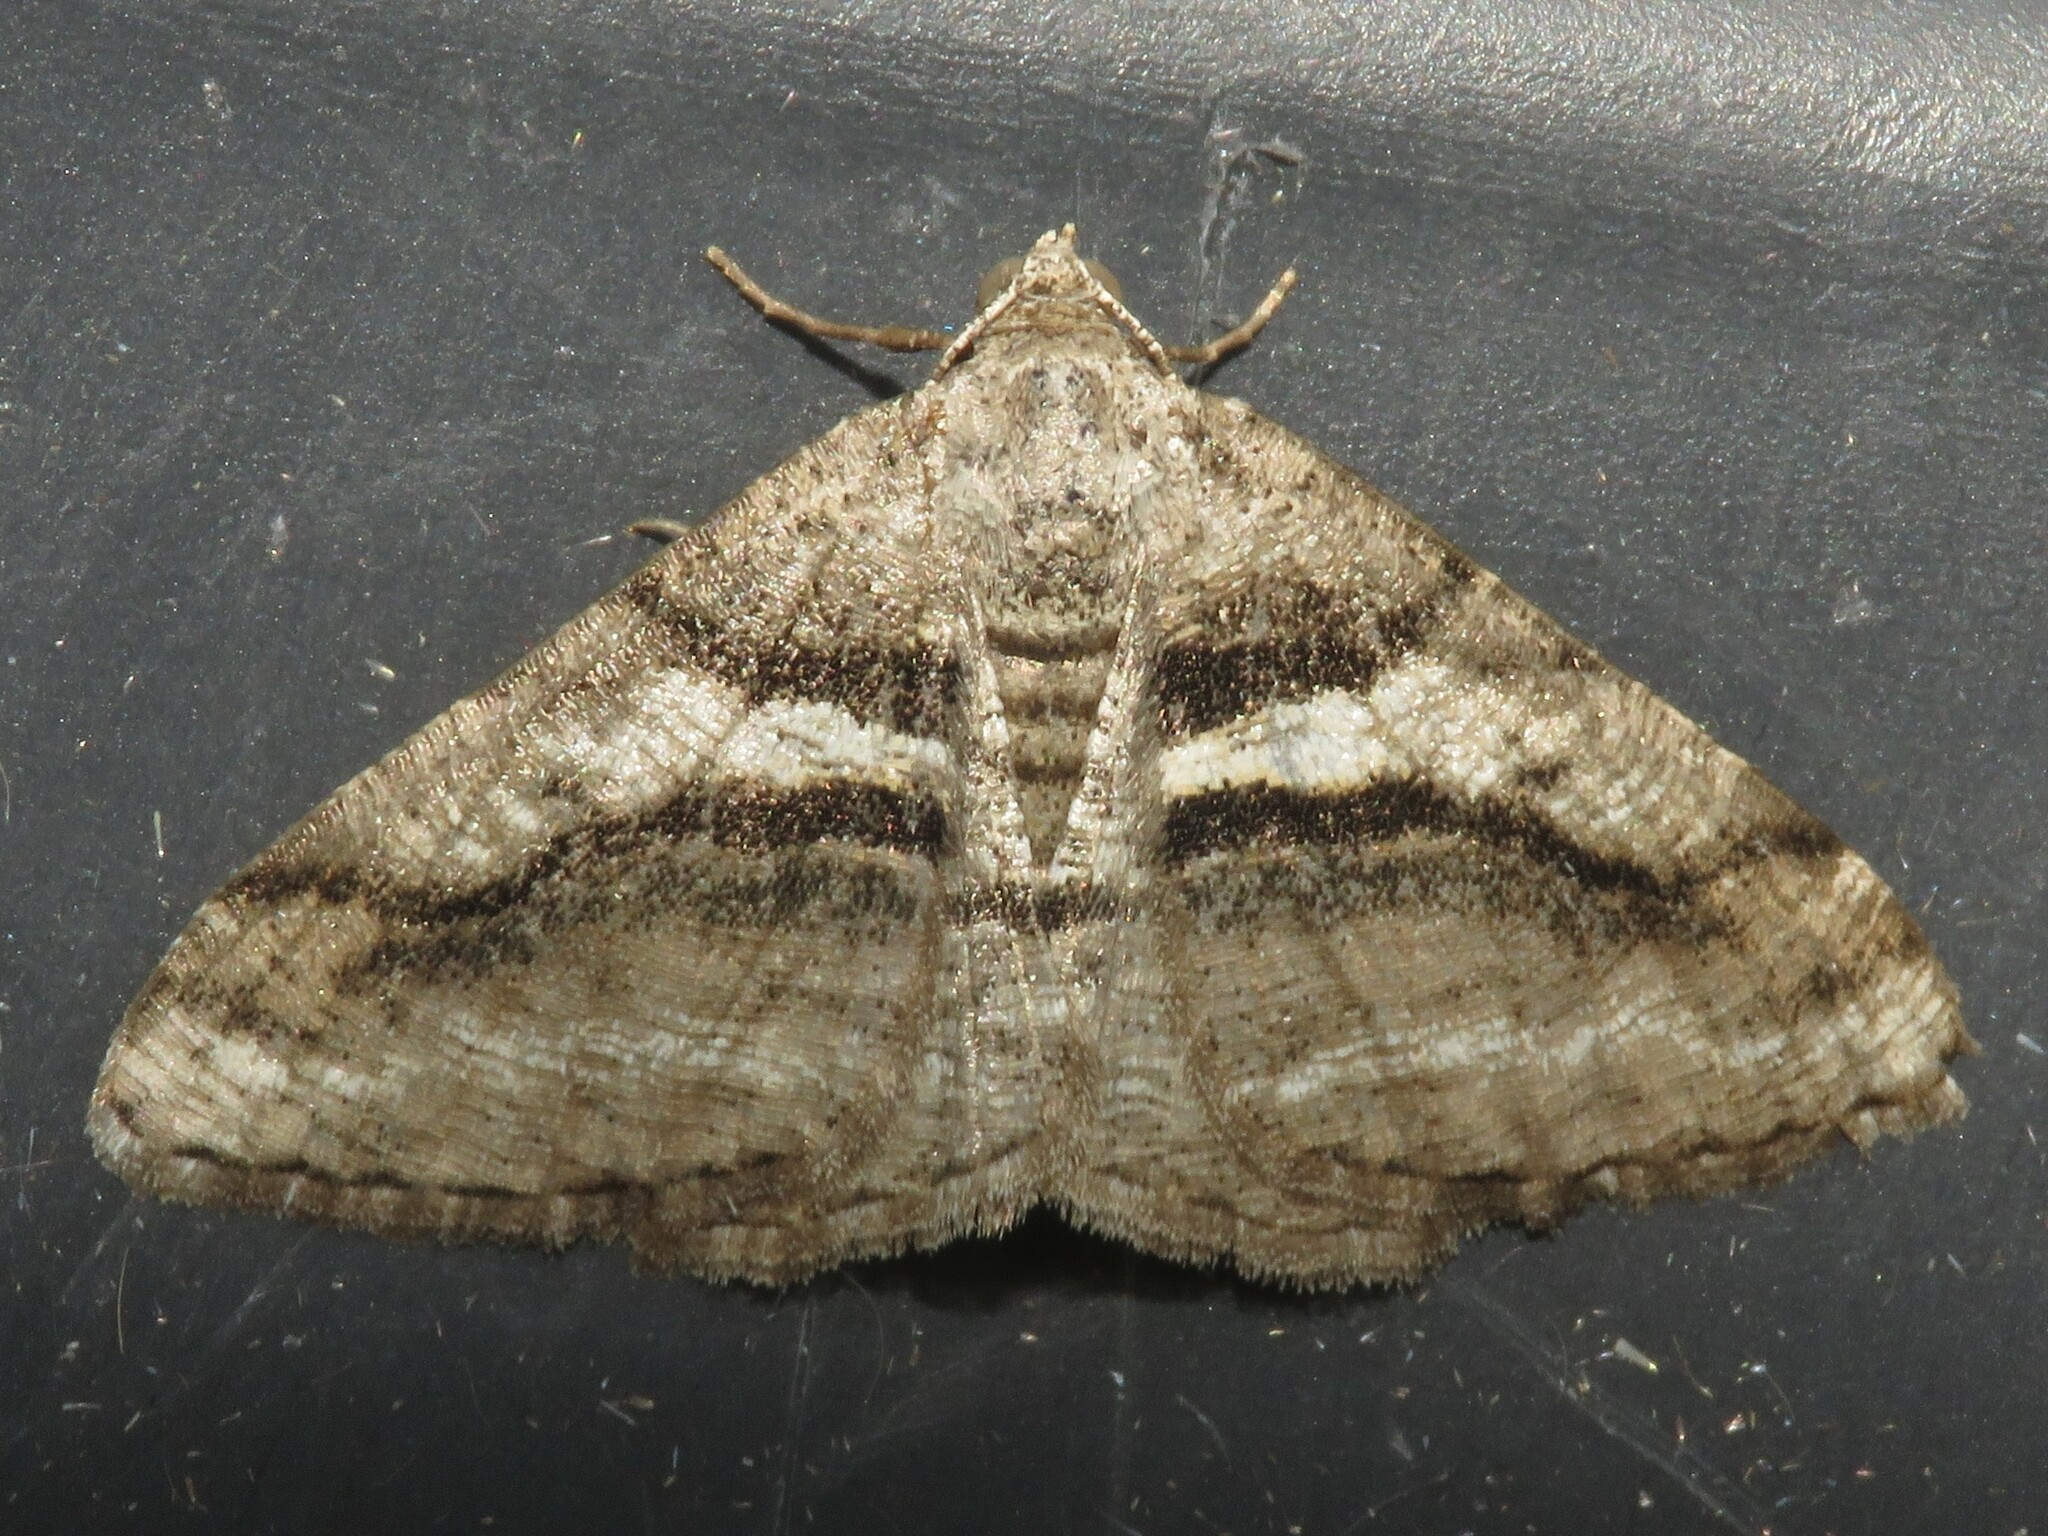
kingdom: Animalia
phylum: Arthropoda
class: Insecta
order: Lepidoptera
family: Geometridae
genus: Digrammia
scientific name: Digrammia continuata
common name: Curve-lined angle
